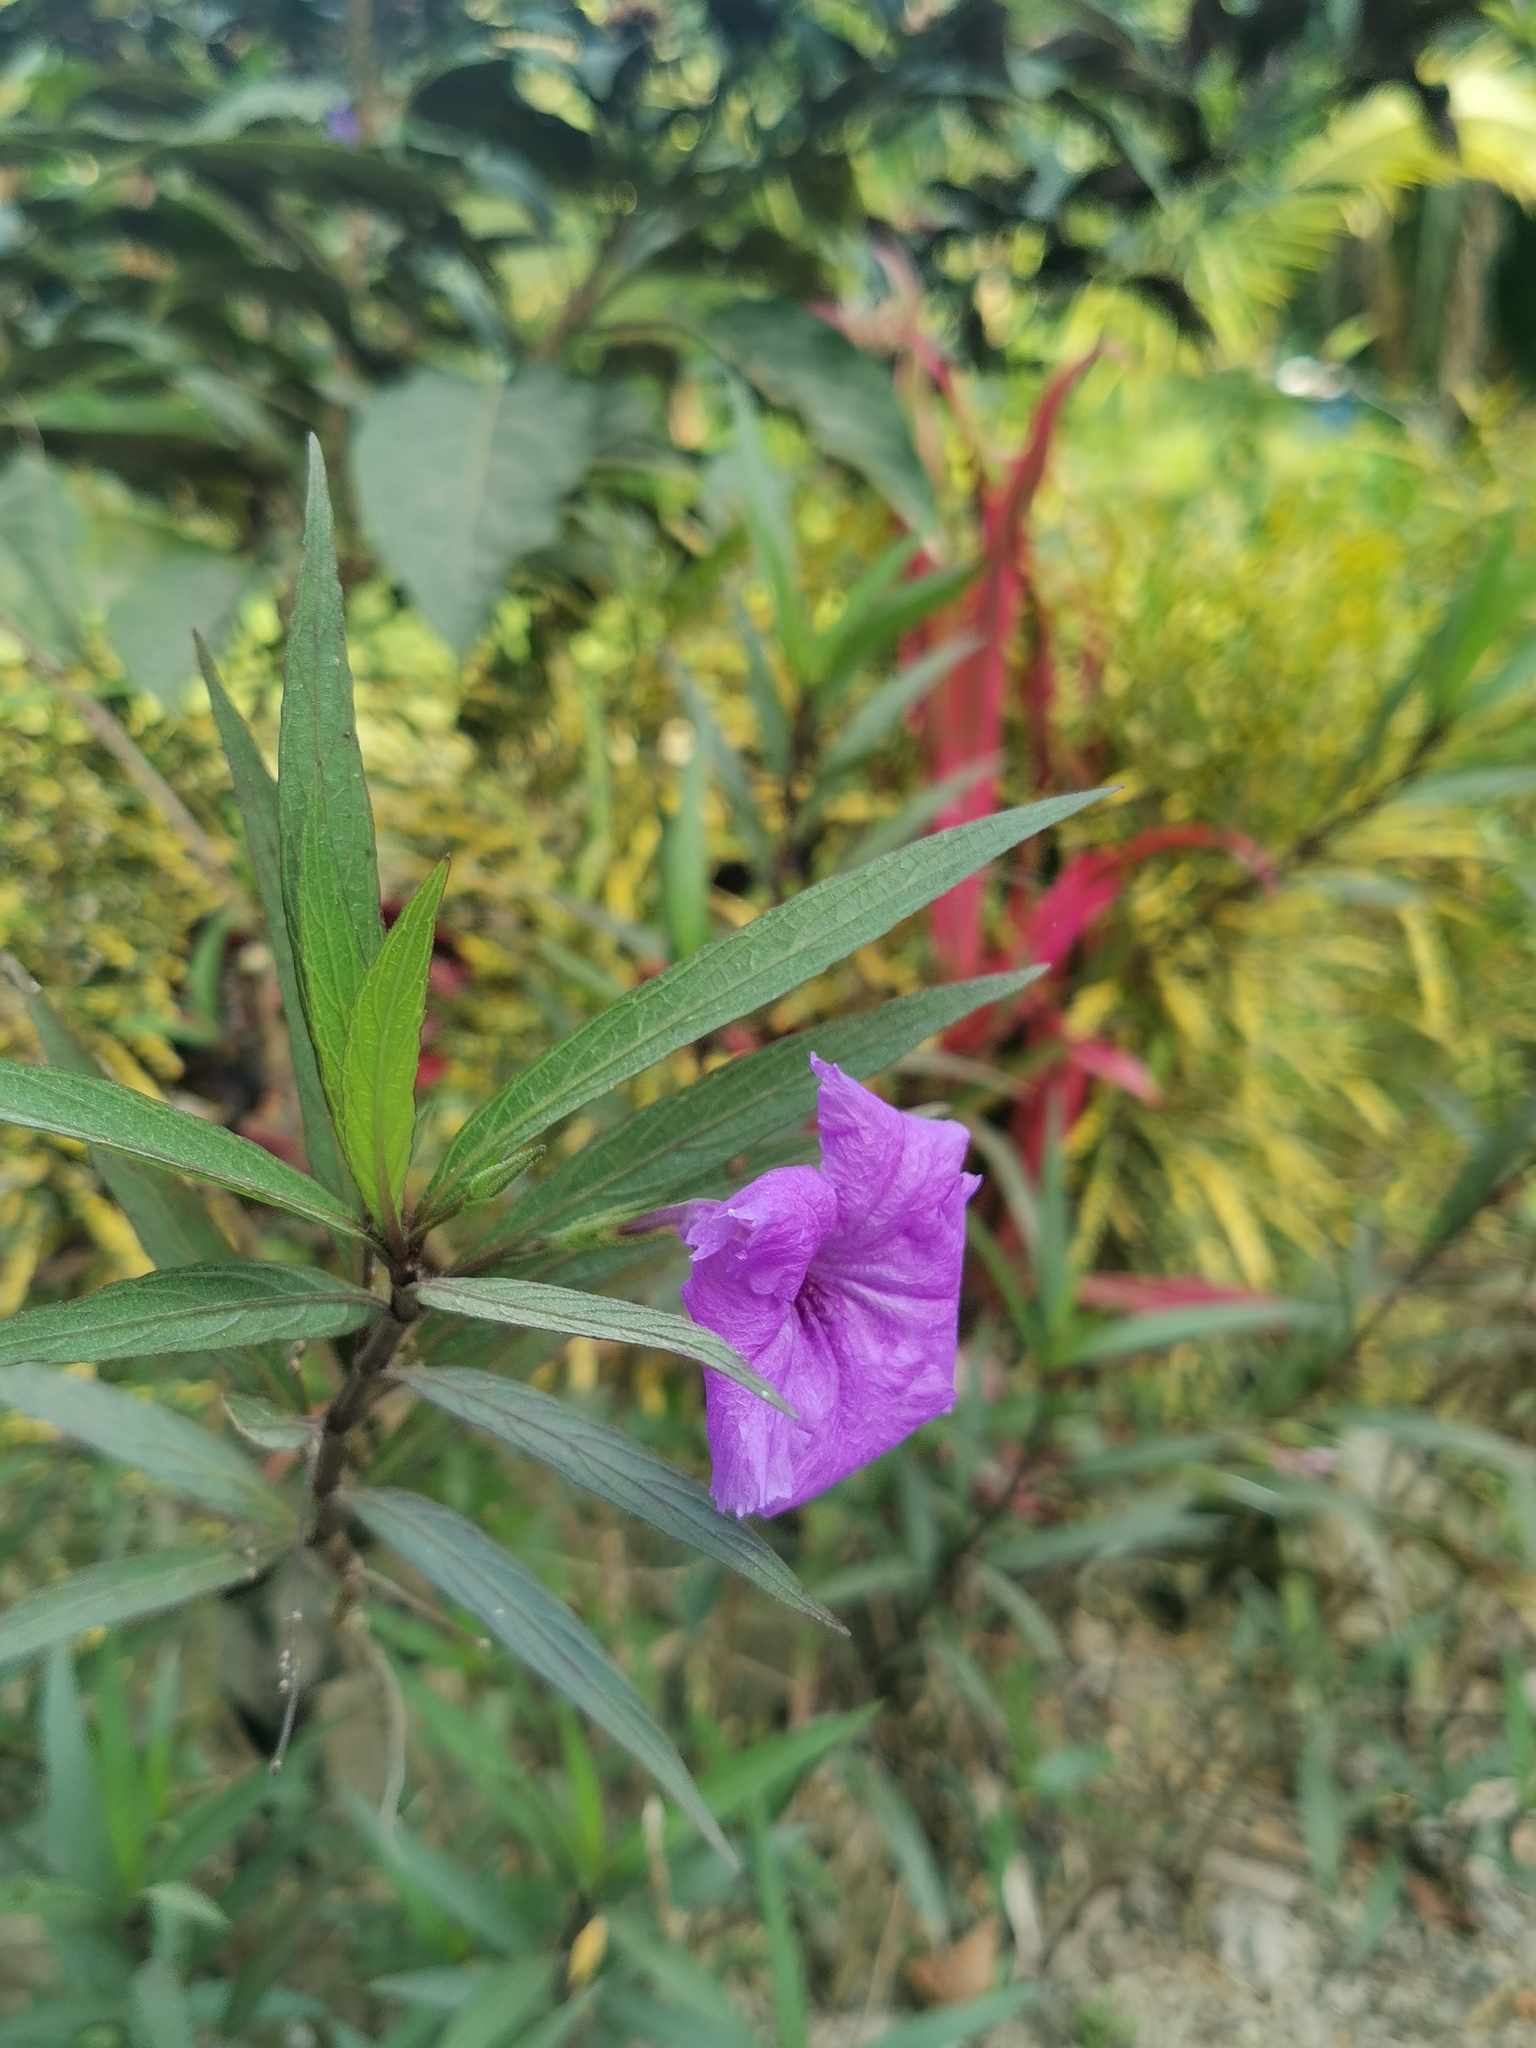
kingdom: Plantae
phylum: Tracheophyta
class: Magnoliopsida
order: Lamiales
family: Acanthaceae
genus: Ruellia
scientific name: Ruellia simplex
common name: Softseed wild petunia
